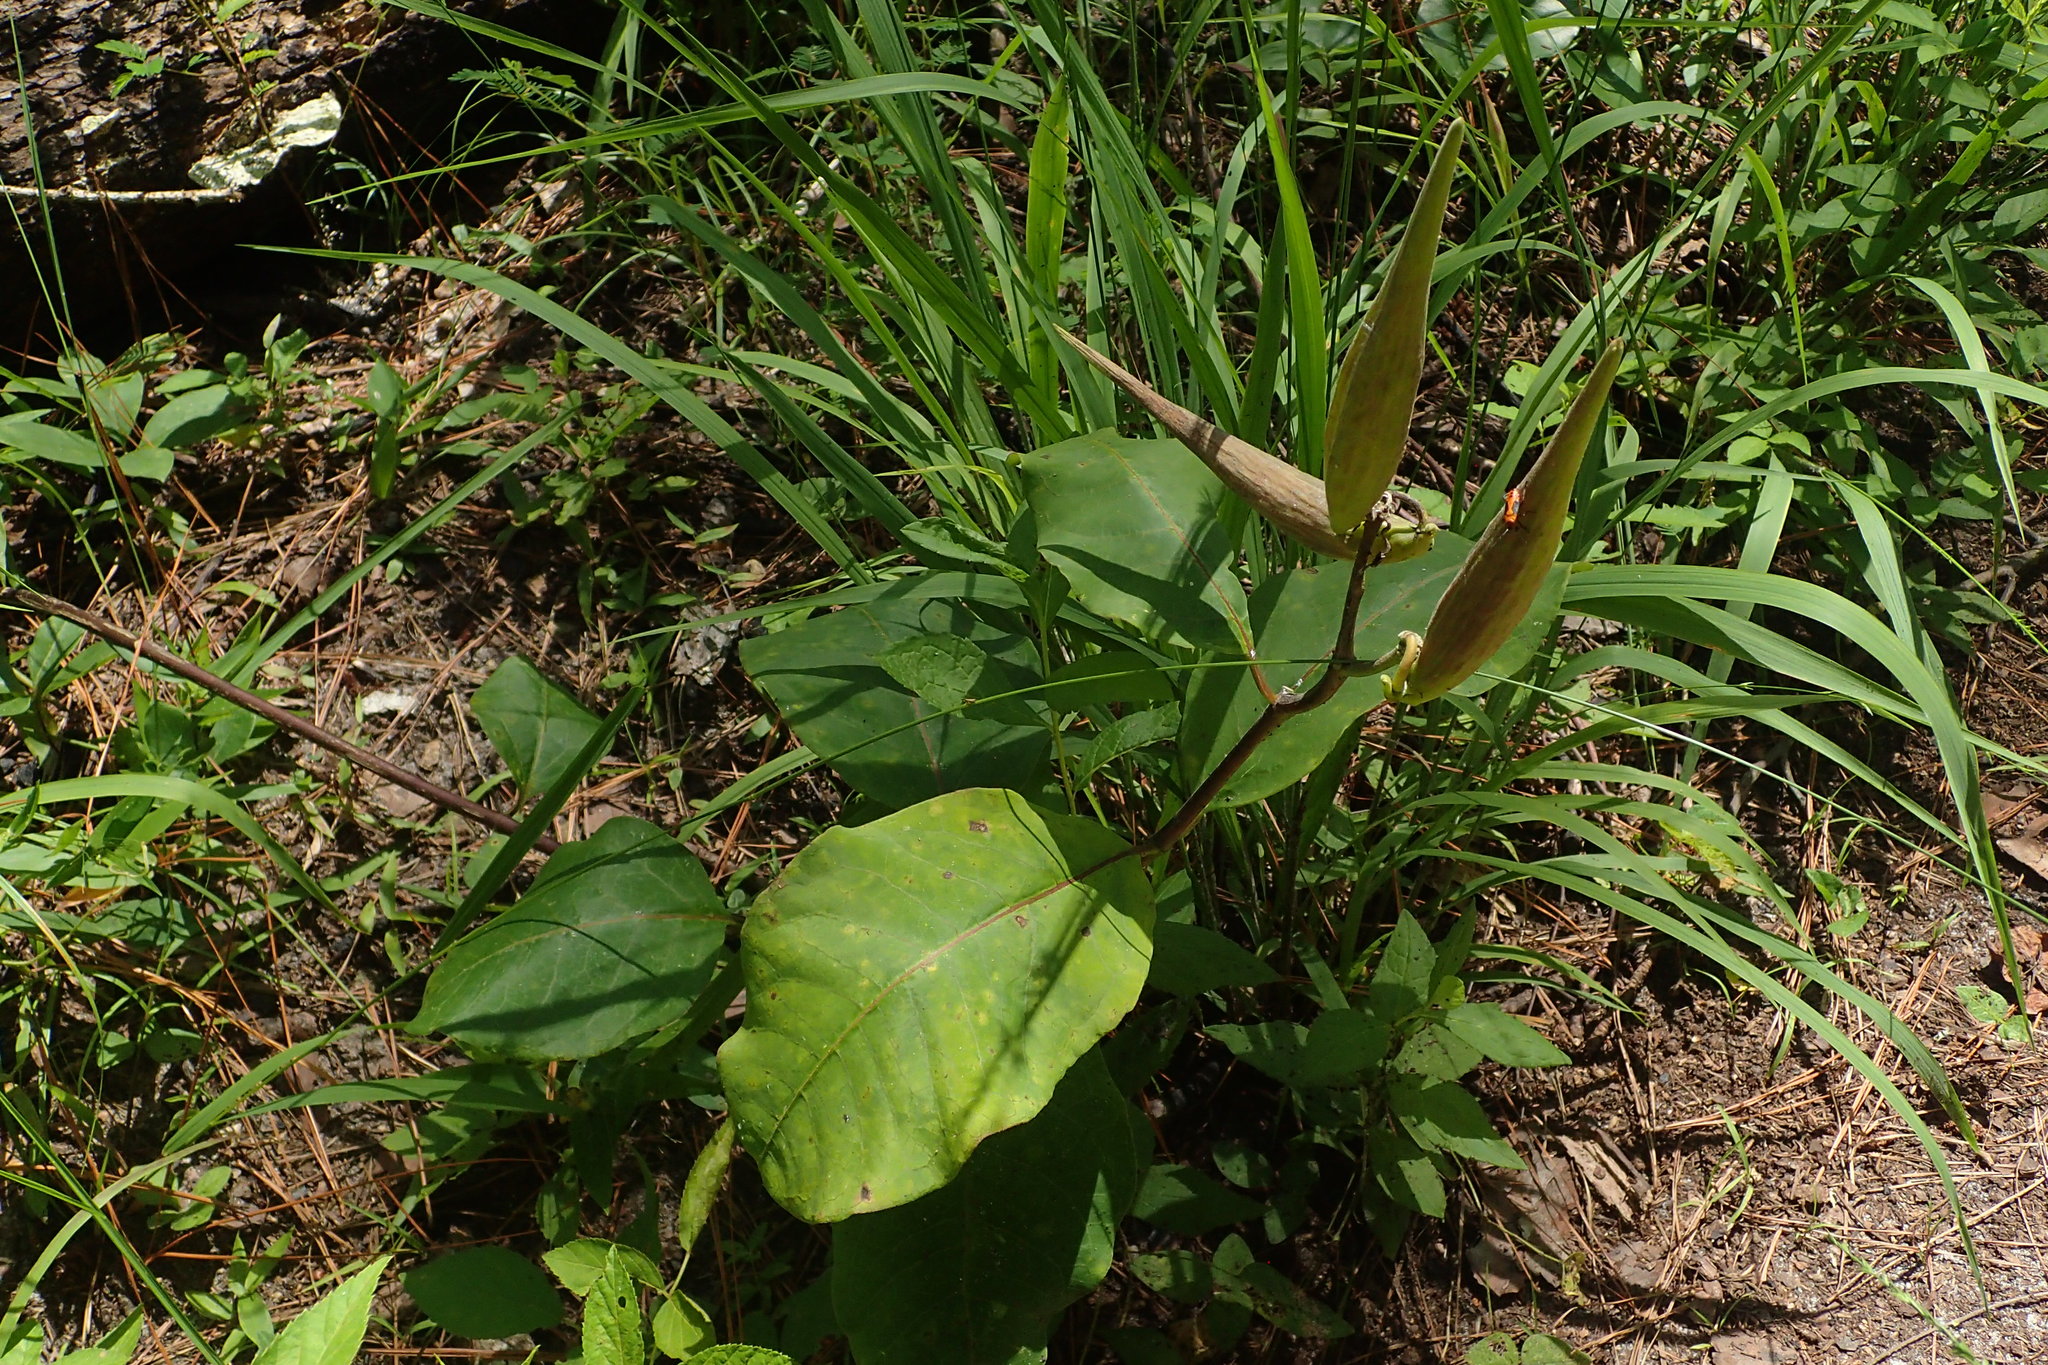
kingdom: Plantae
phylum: Tracheophyta
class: Magnoliopsida
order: Gentianales
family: Apocynaceae
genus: Asclepias
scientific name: Asclepias variegata
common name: Variegated milkweed
